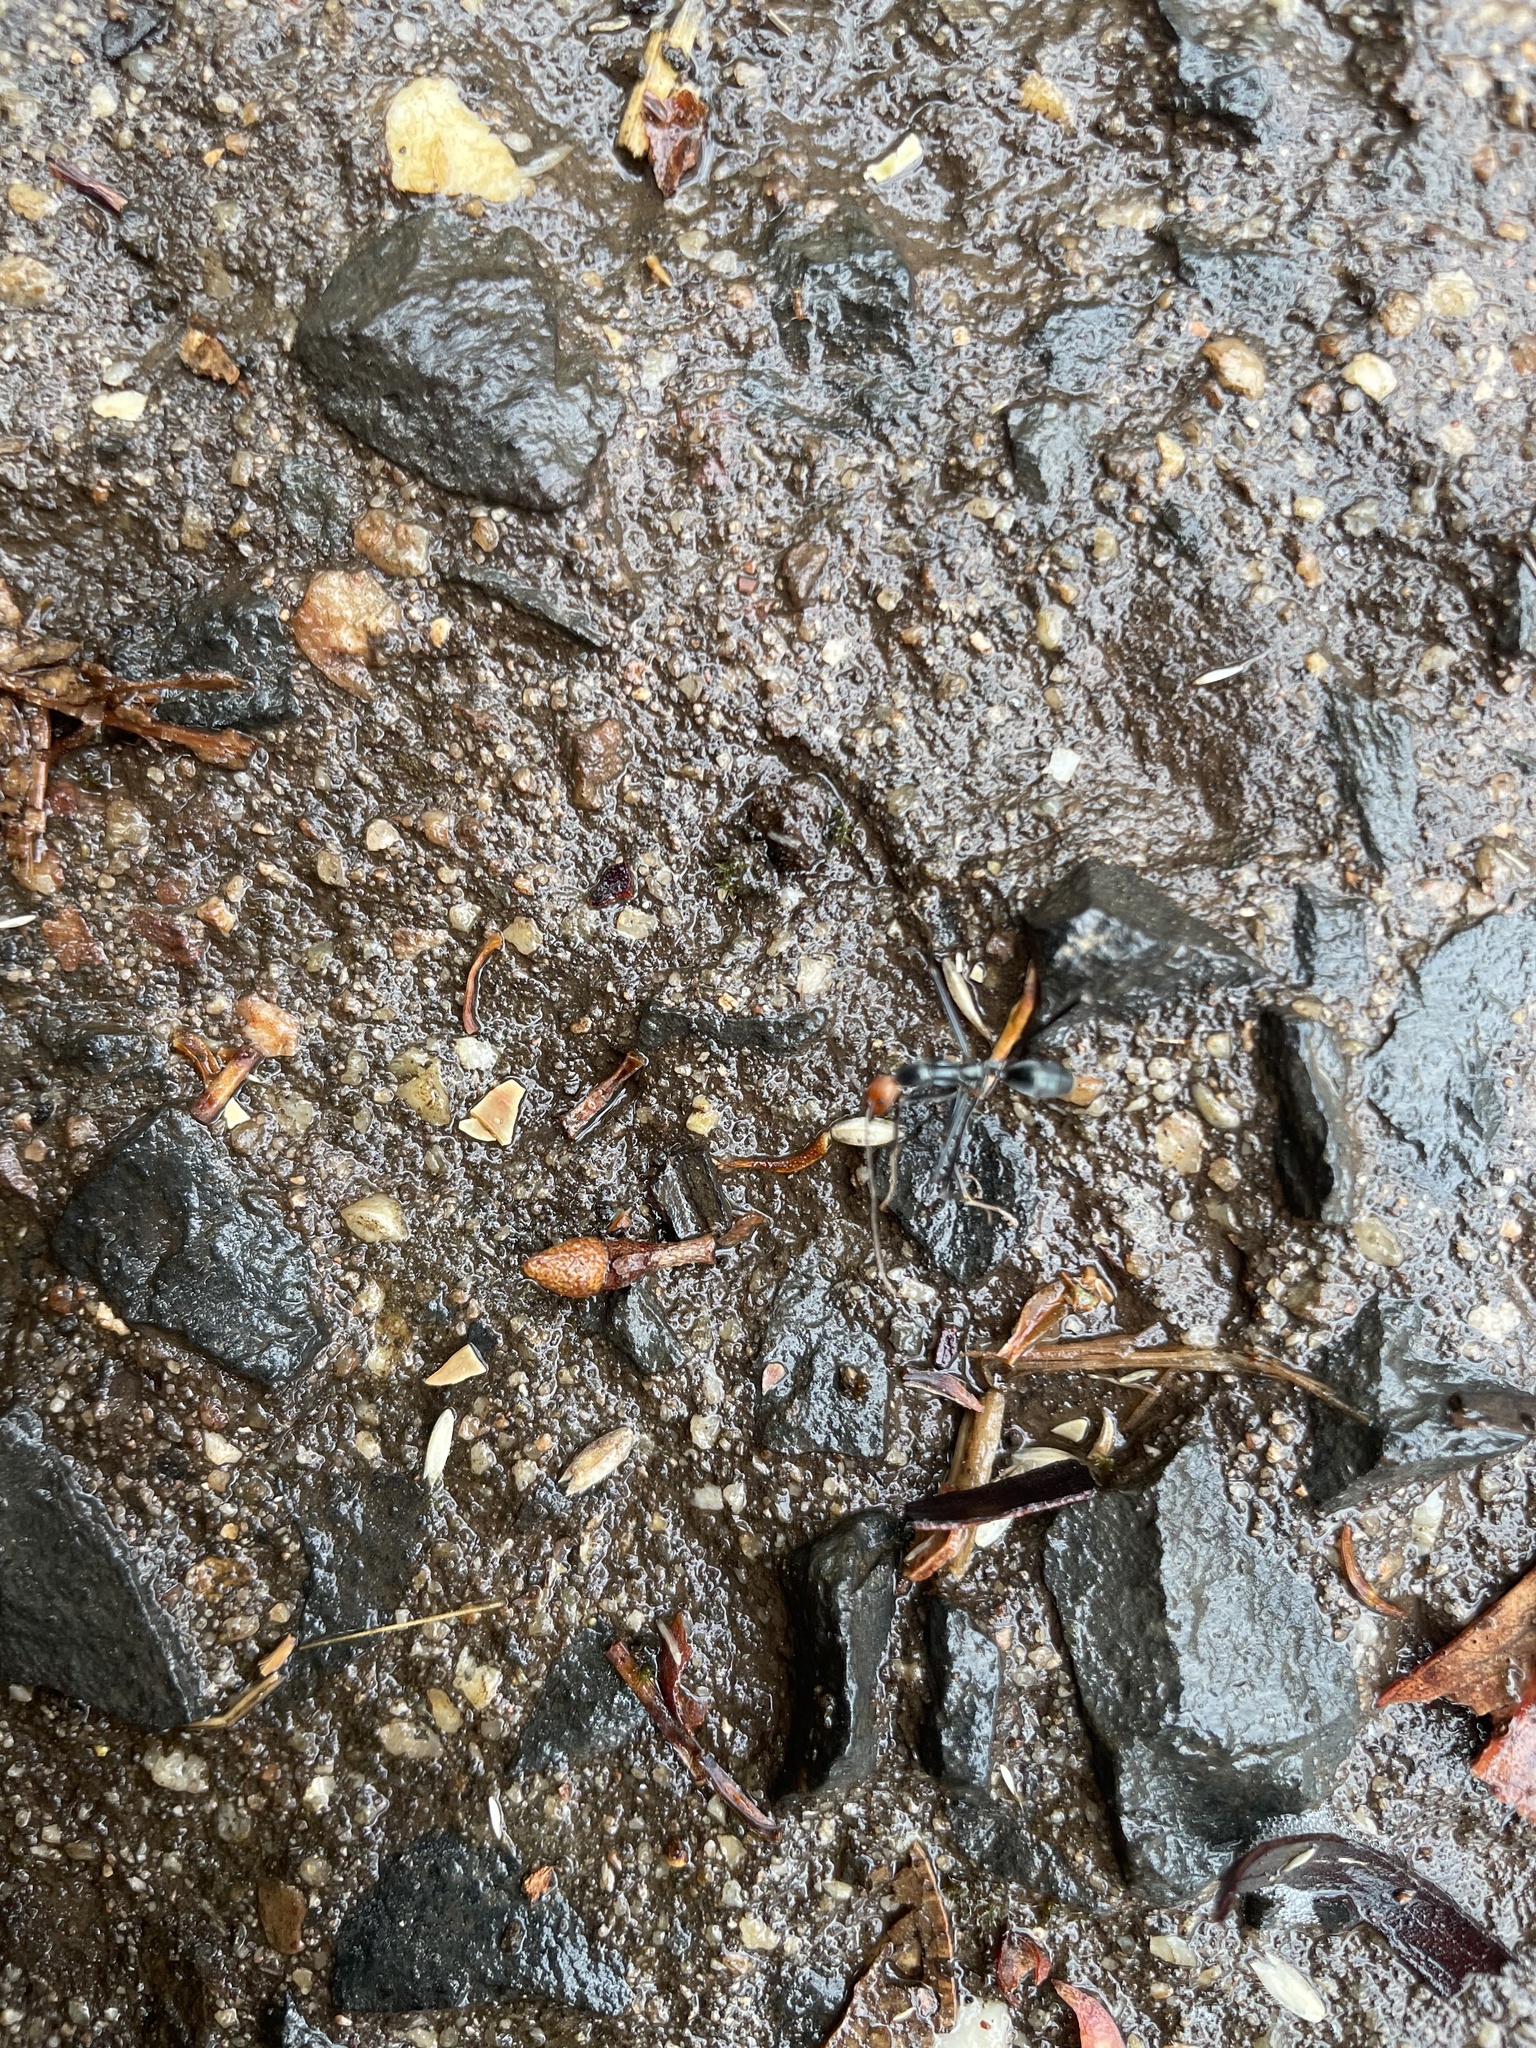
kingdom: Animalia
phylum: Arthropoda
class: Insecta
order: Hymenoptera
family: Formicidae
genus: Leptomyrmex
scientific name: Leptomyrmex erythrocephalus
